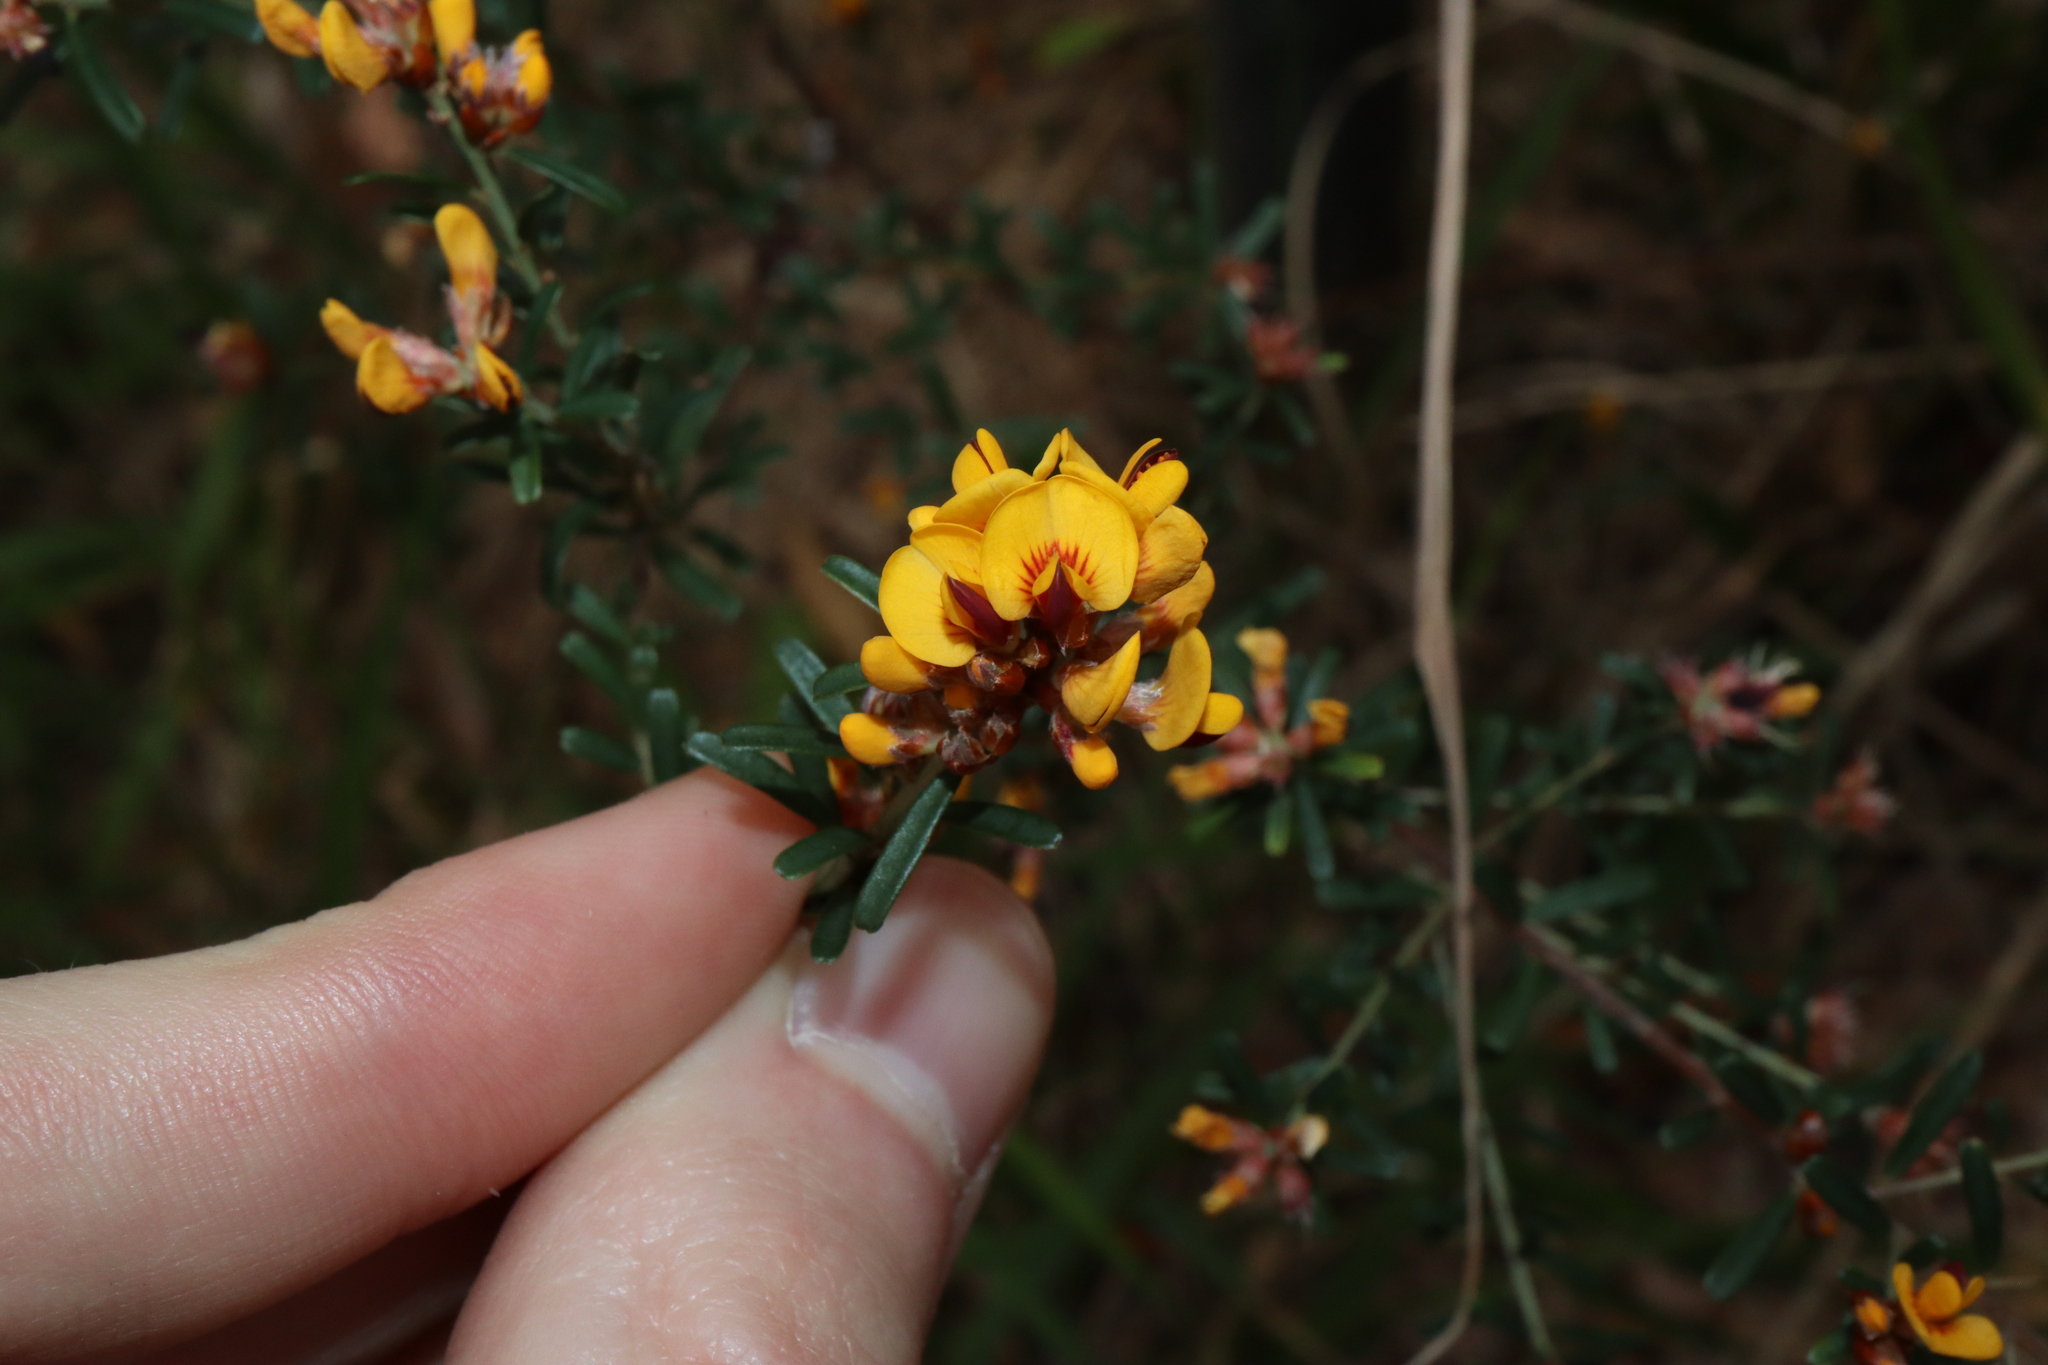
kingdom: Plantae
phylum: Tracheophyta
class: Magnoliopsida
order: Fabales
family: Fabaceae
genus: Pultenaea
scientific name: Pultenaea retusa
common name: Blunt bush-pea
